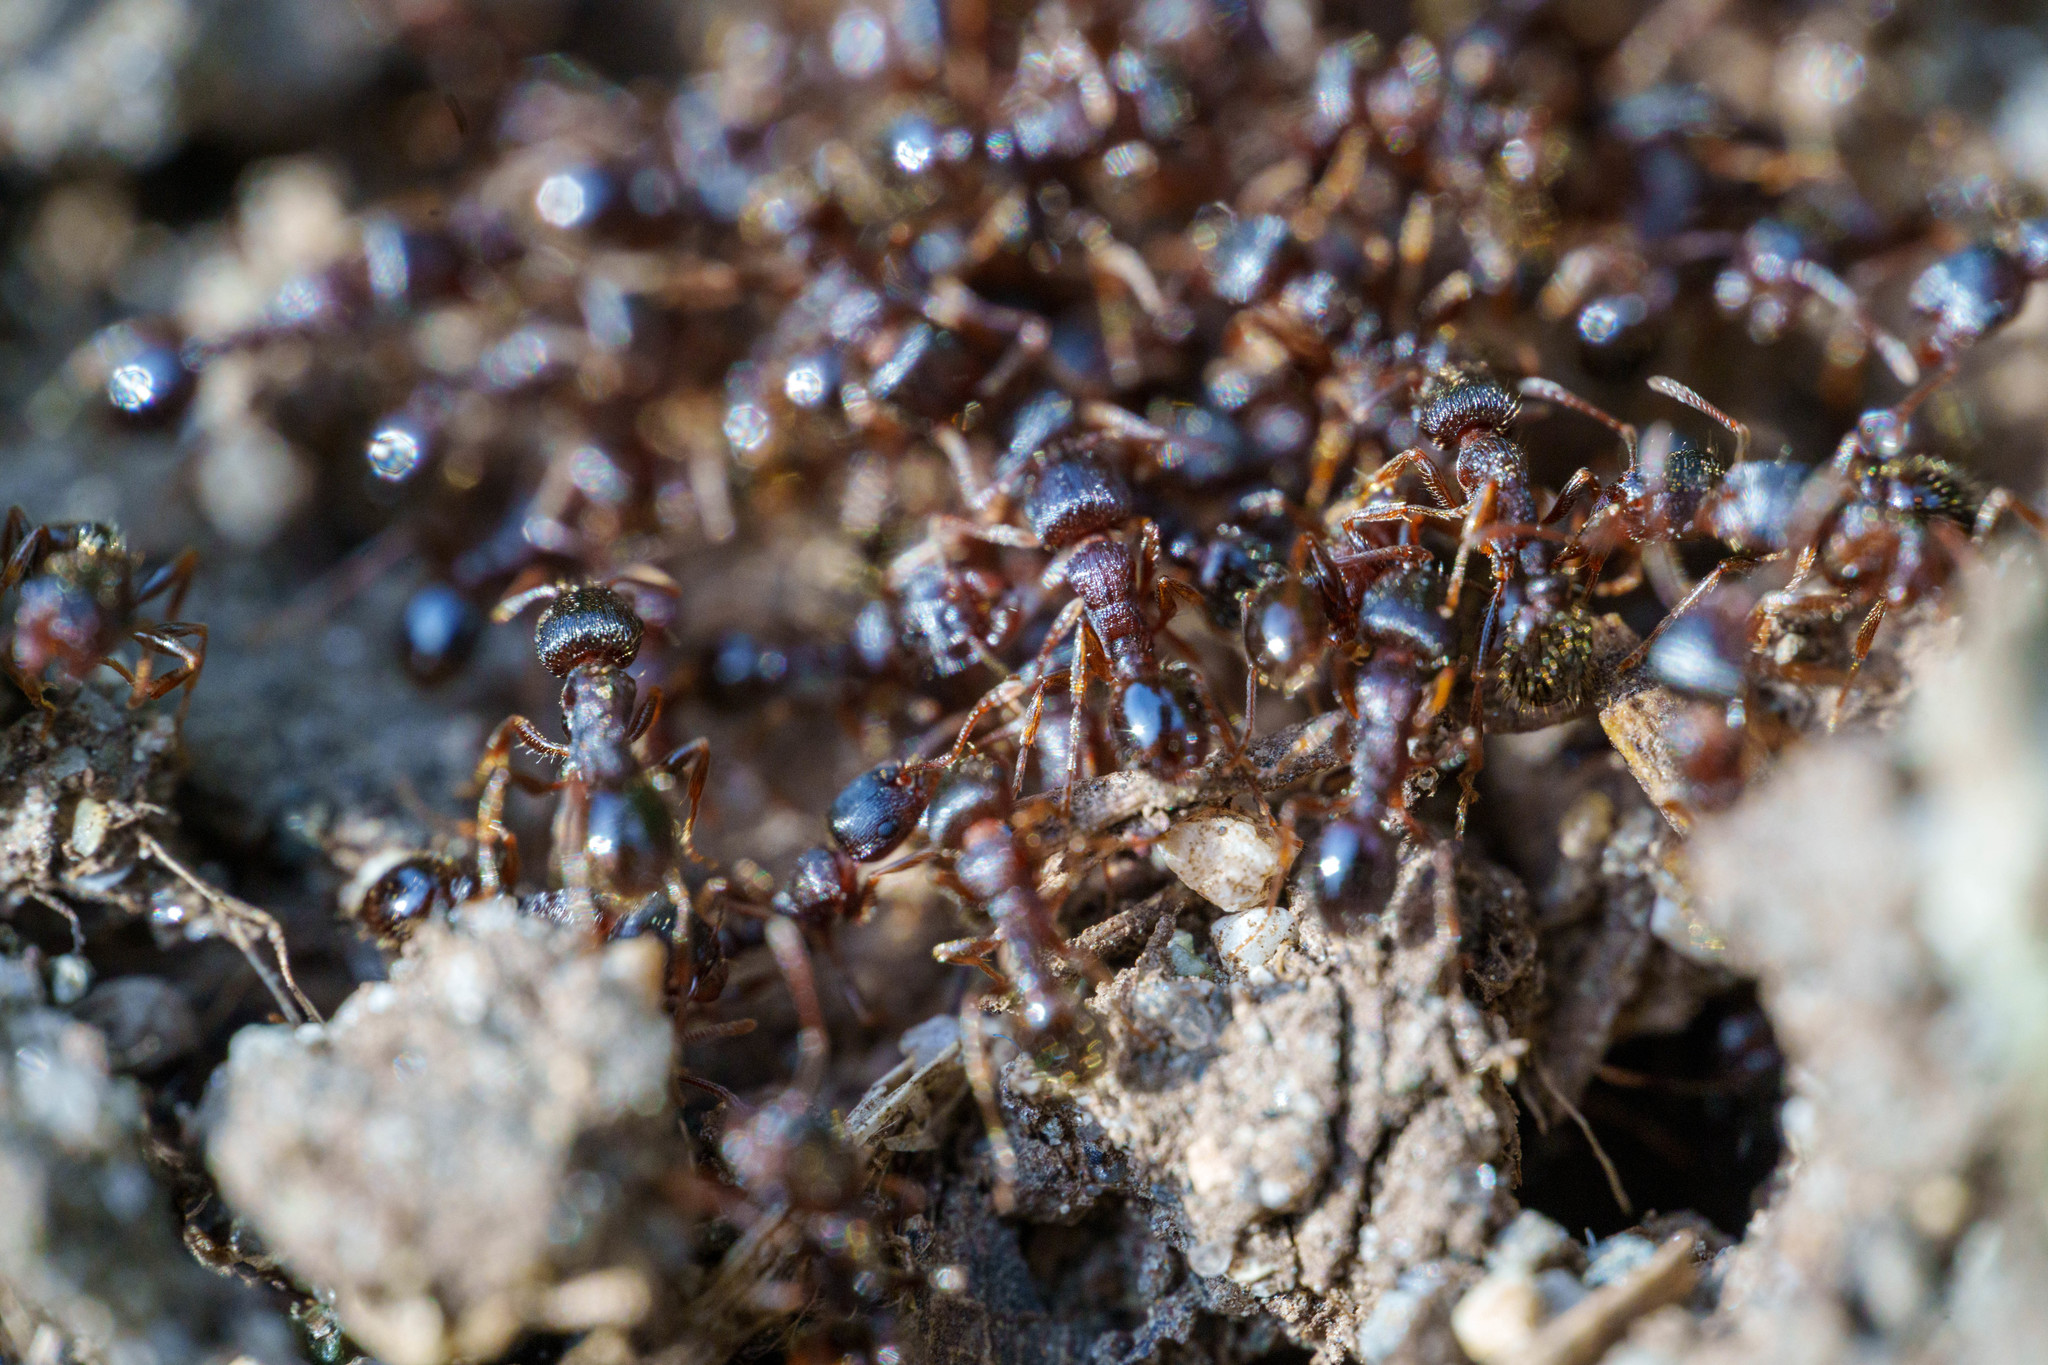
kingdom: Animalia
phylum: Arthropoda
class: Insecta
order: Hymenoptera
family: Formicidae
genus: Tetramorium
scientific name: Tetramorium immigrans
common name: Pavement ant
